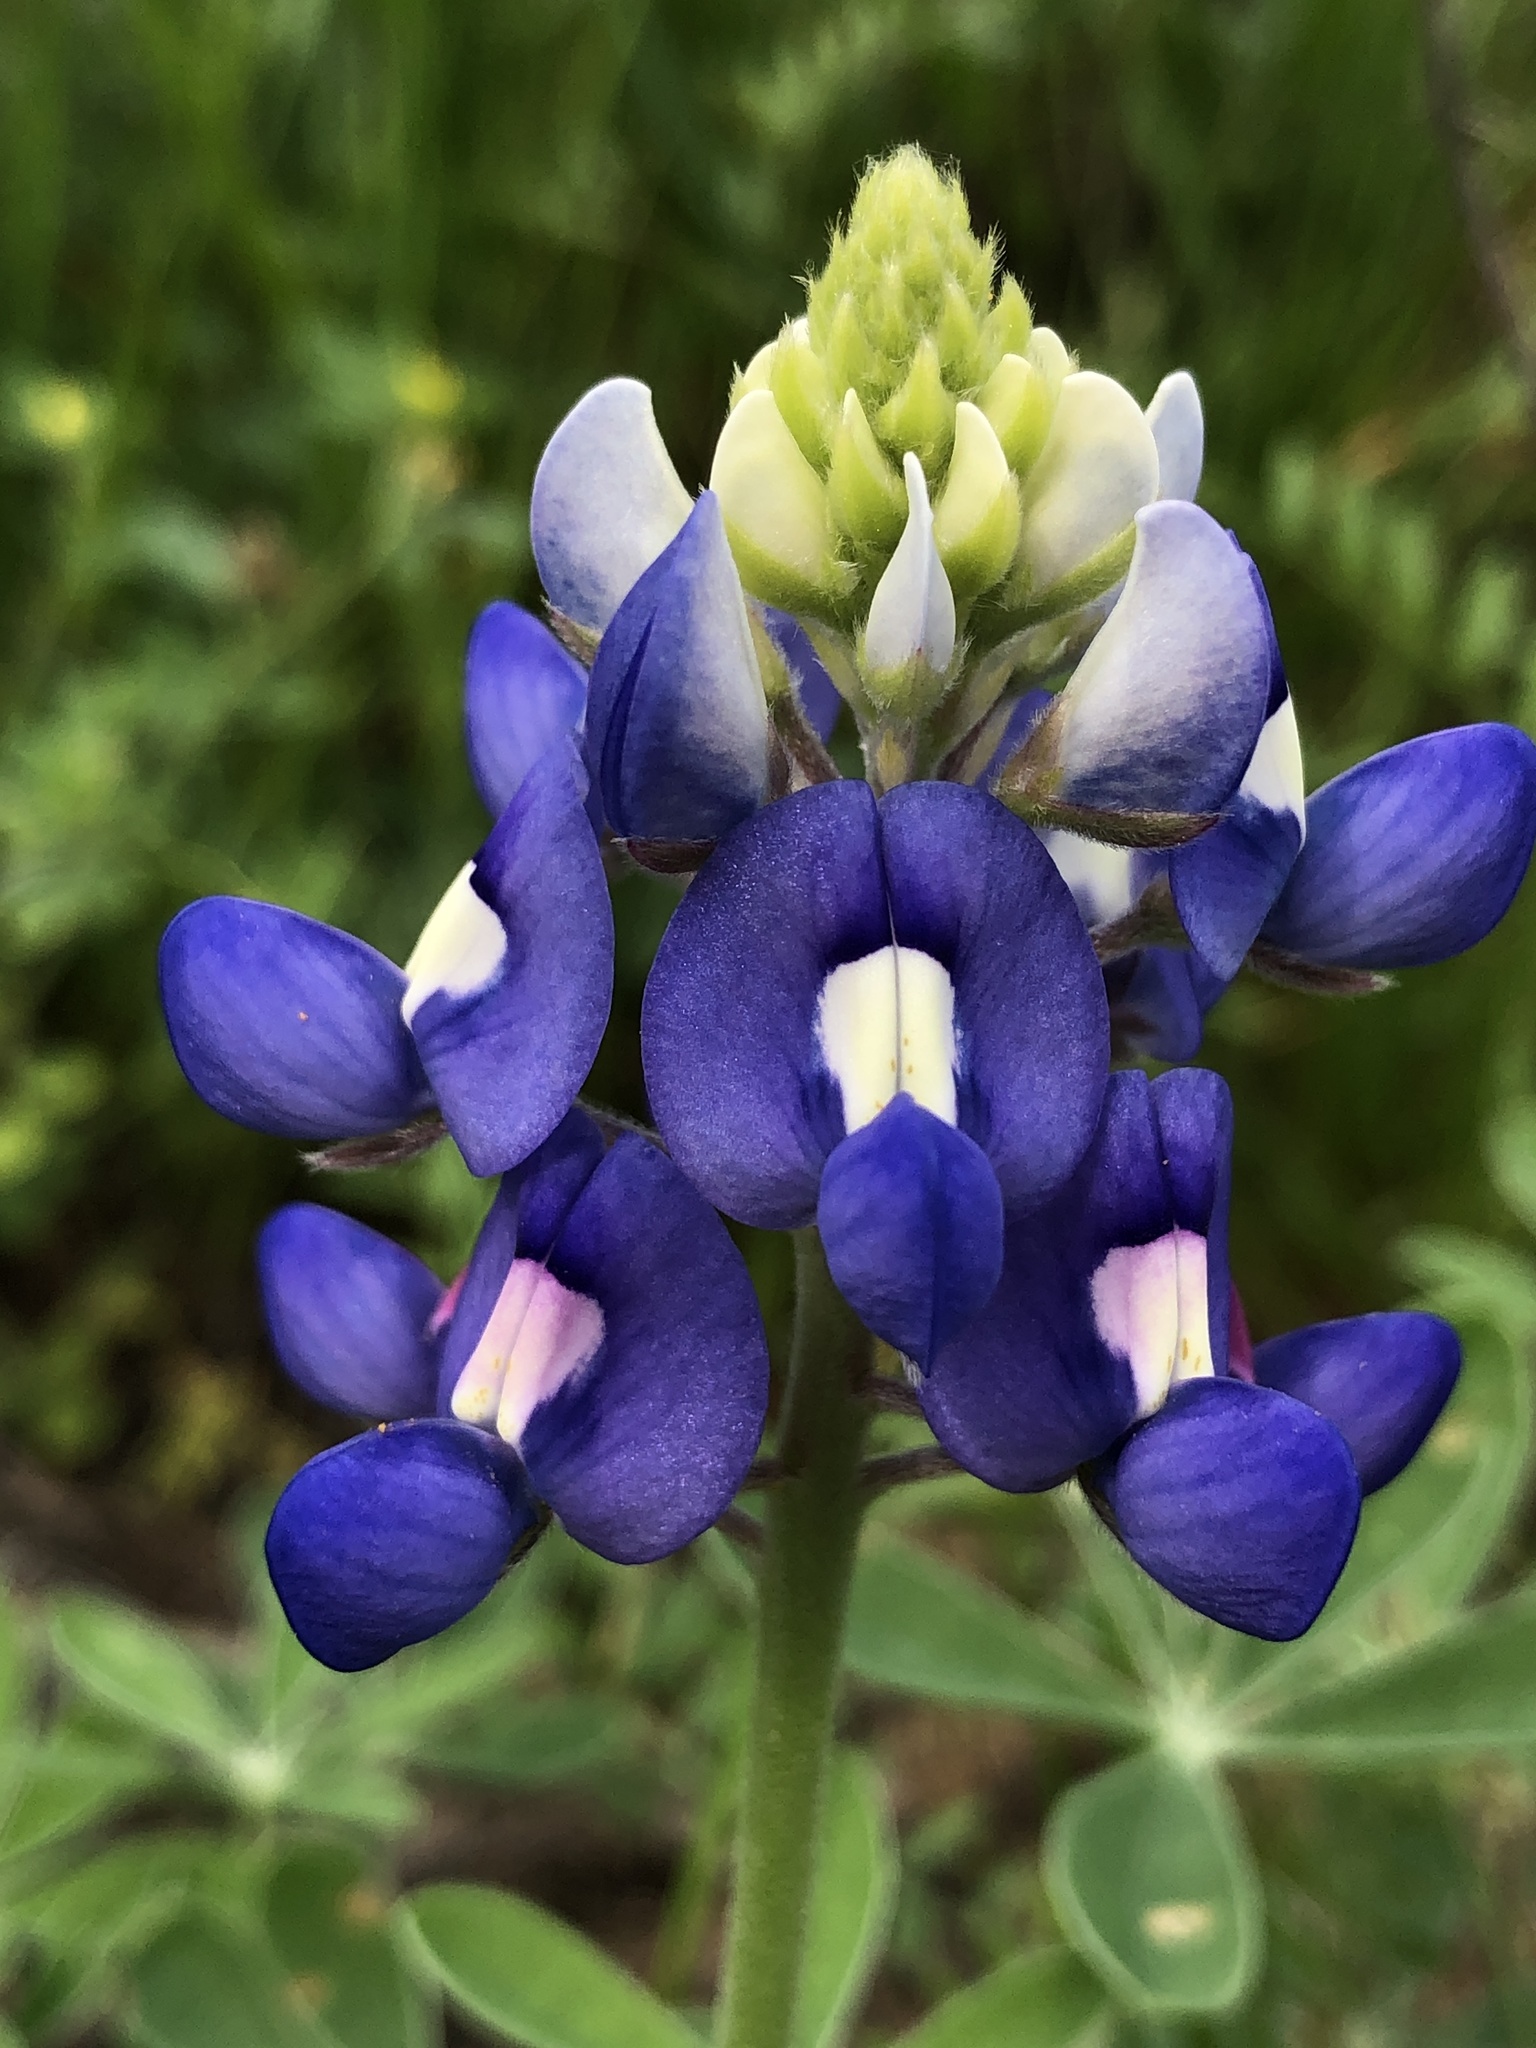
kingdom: Plantae
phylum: Tracheophyta
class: Magnoliopsida
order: Fabales
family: Fabaceae
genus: Lupinus
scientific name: Lupinus texensis
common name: Texas bluebonnet
